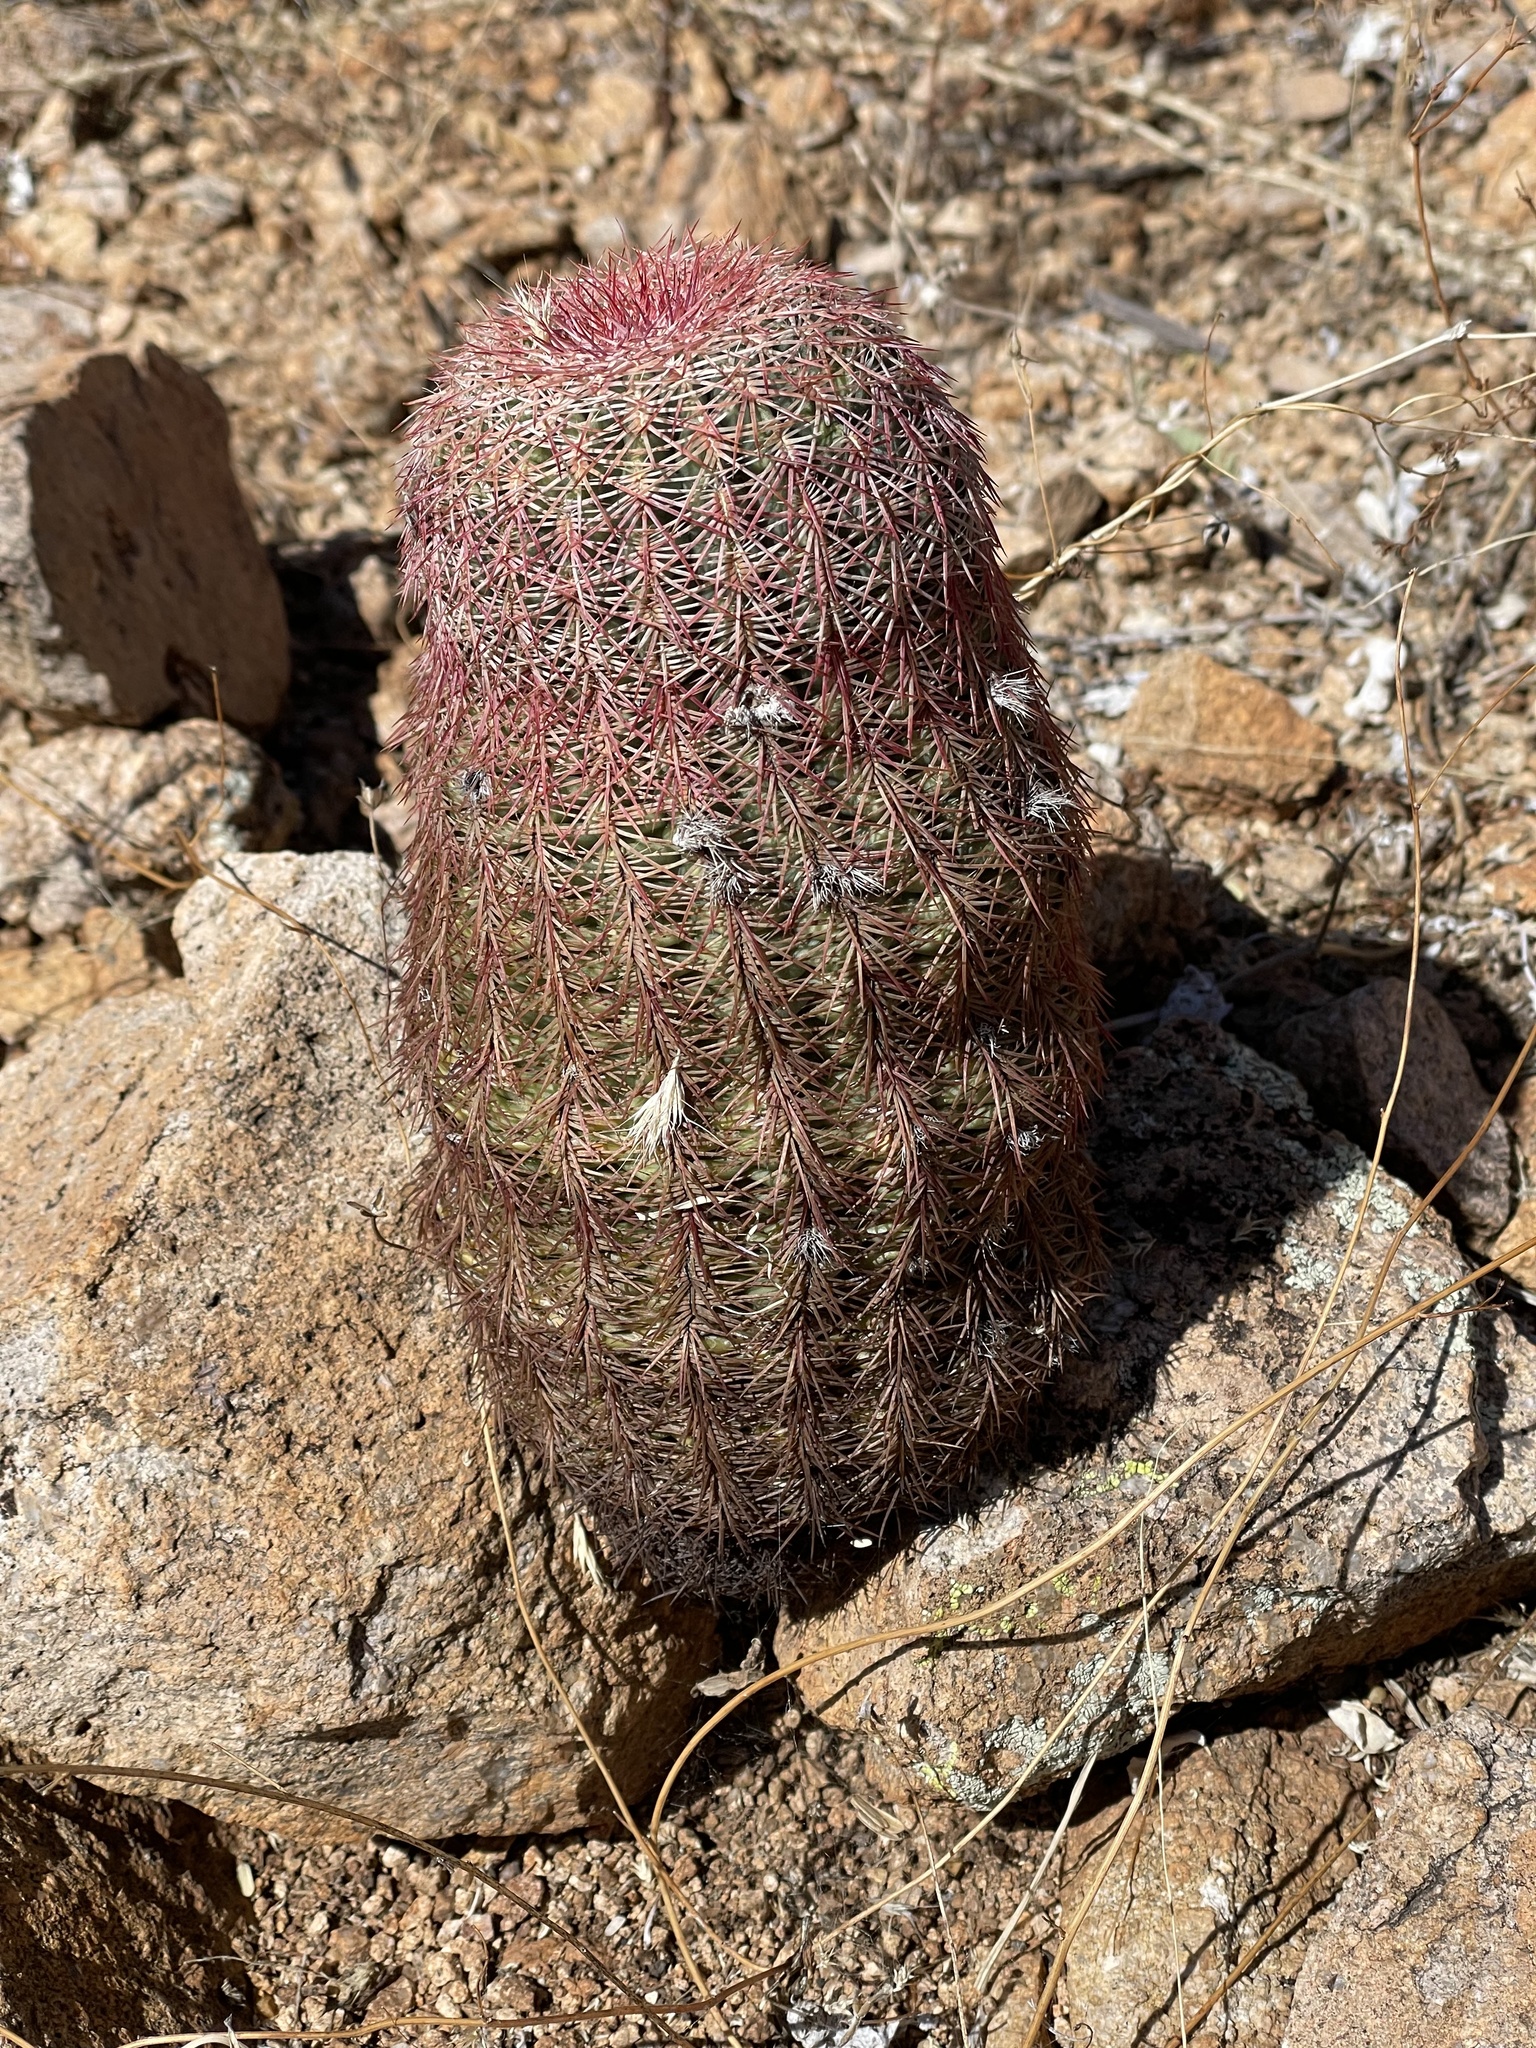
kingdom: Plantae
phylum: Tracheophyta
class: Magnoliopsida
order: Caryophyllales
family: Cactaceae
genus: Echinocereus
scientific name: Echinocereus rigidissimus
